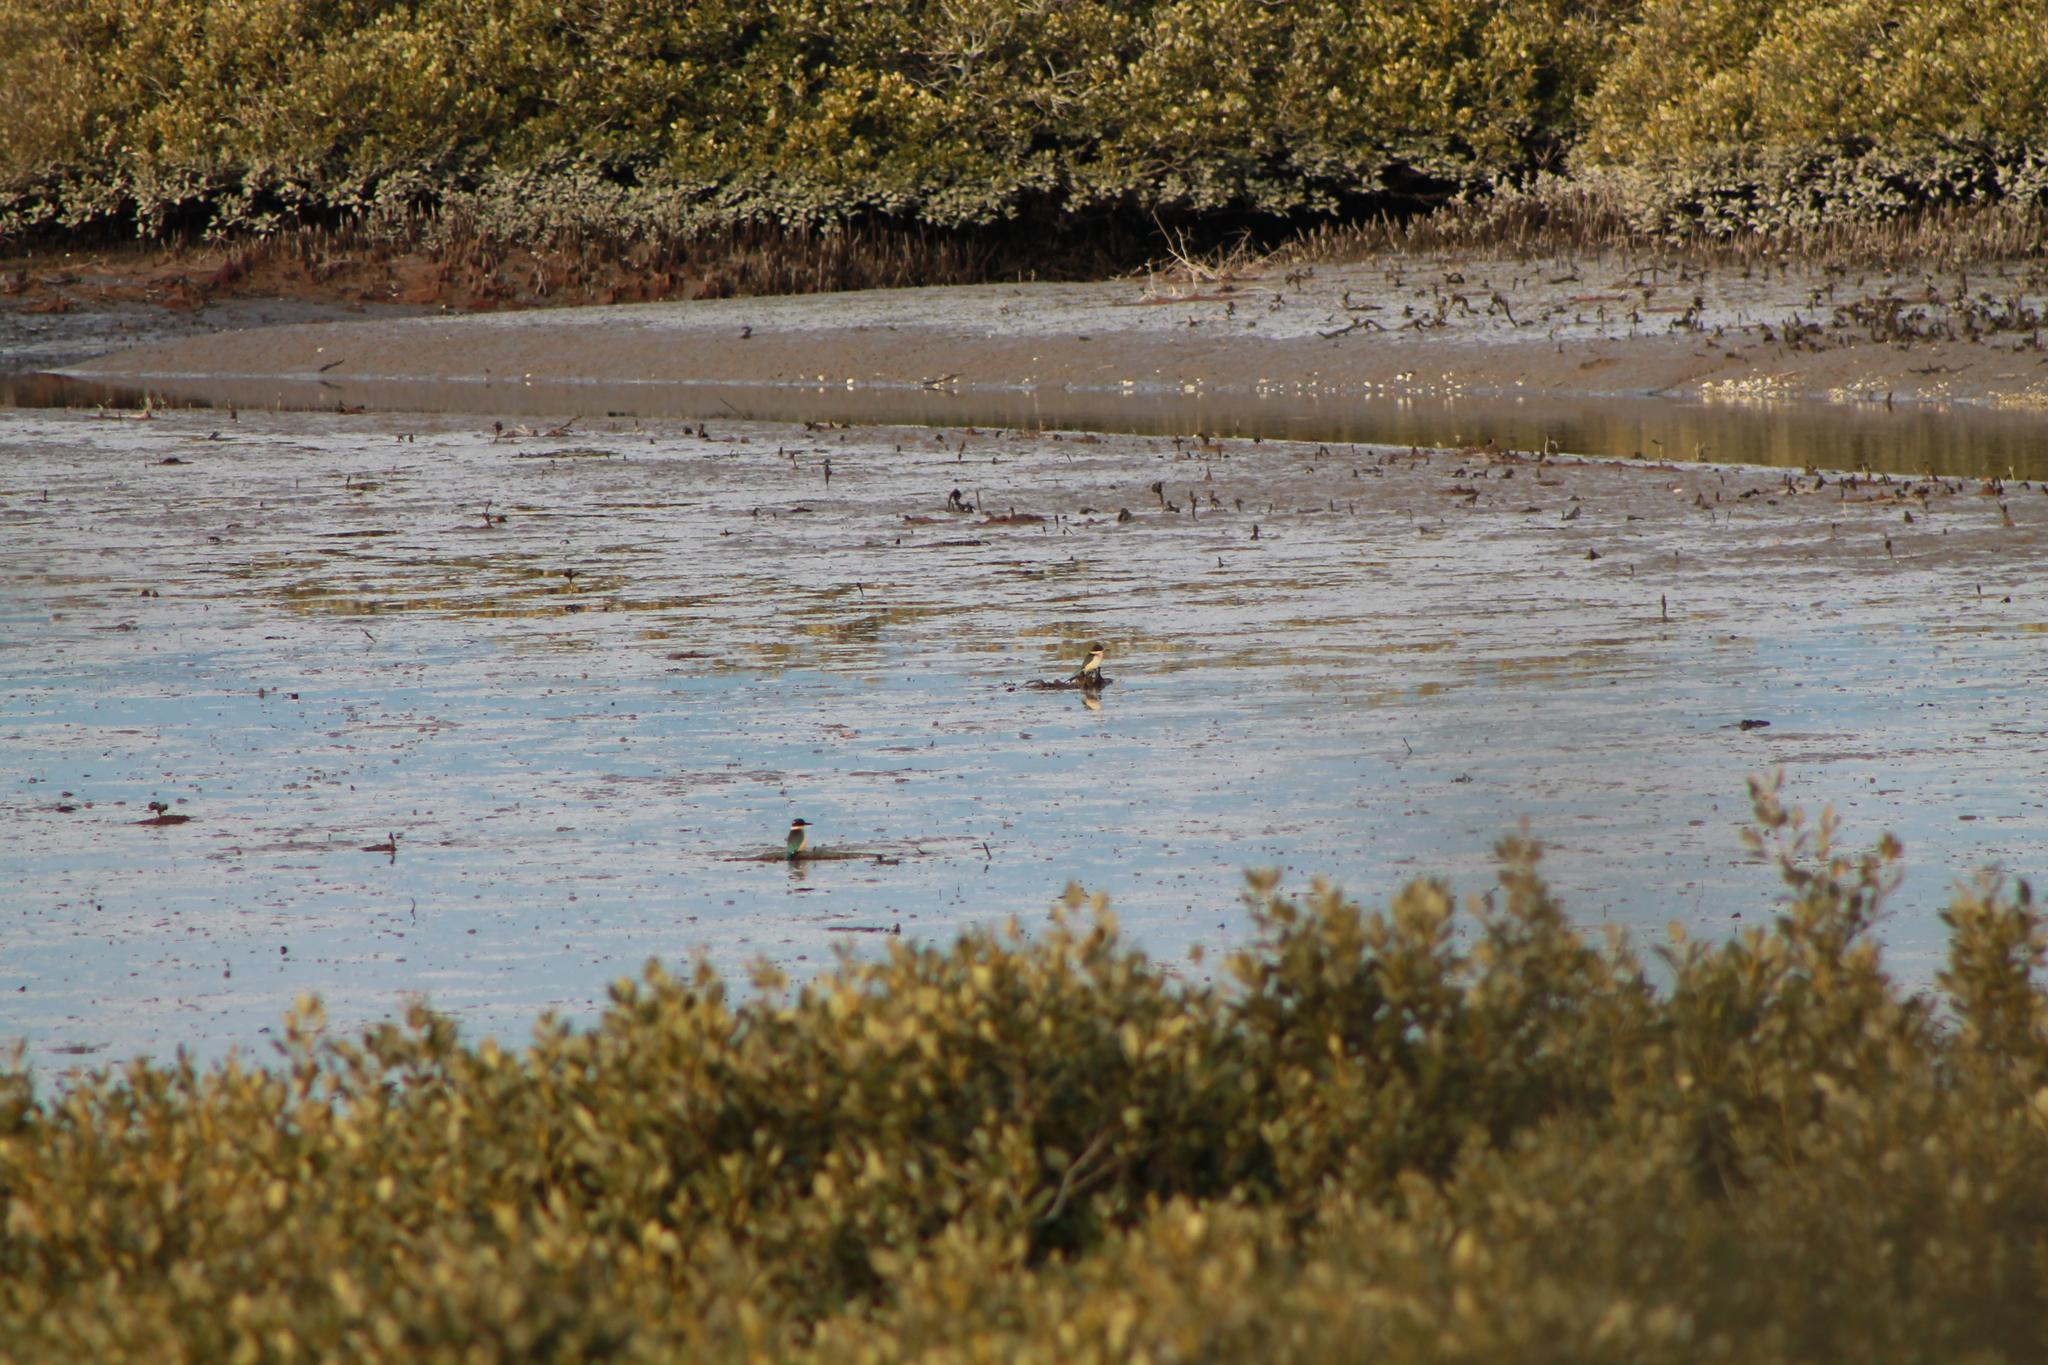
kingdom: Animalia
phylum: Chordata
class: Aves
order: Coraciiformes
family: Alcedinidae
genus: Todiramphus
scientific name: Todiramphus sanctus
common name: Sacred kingfisher
